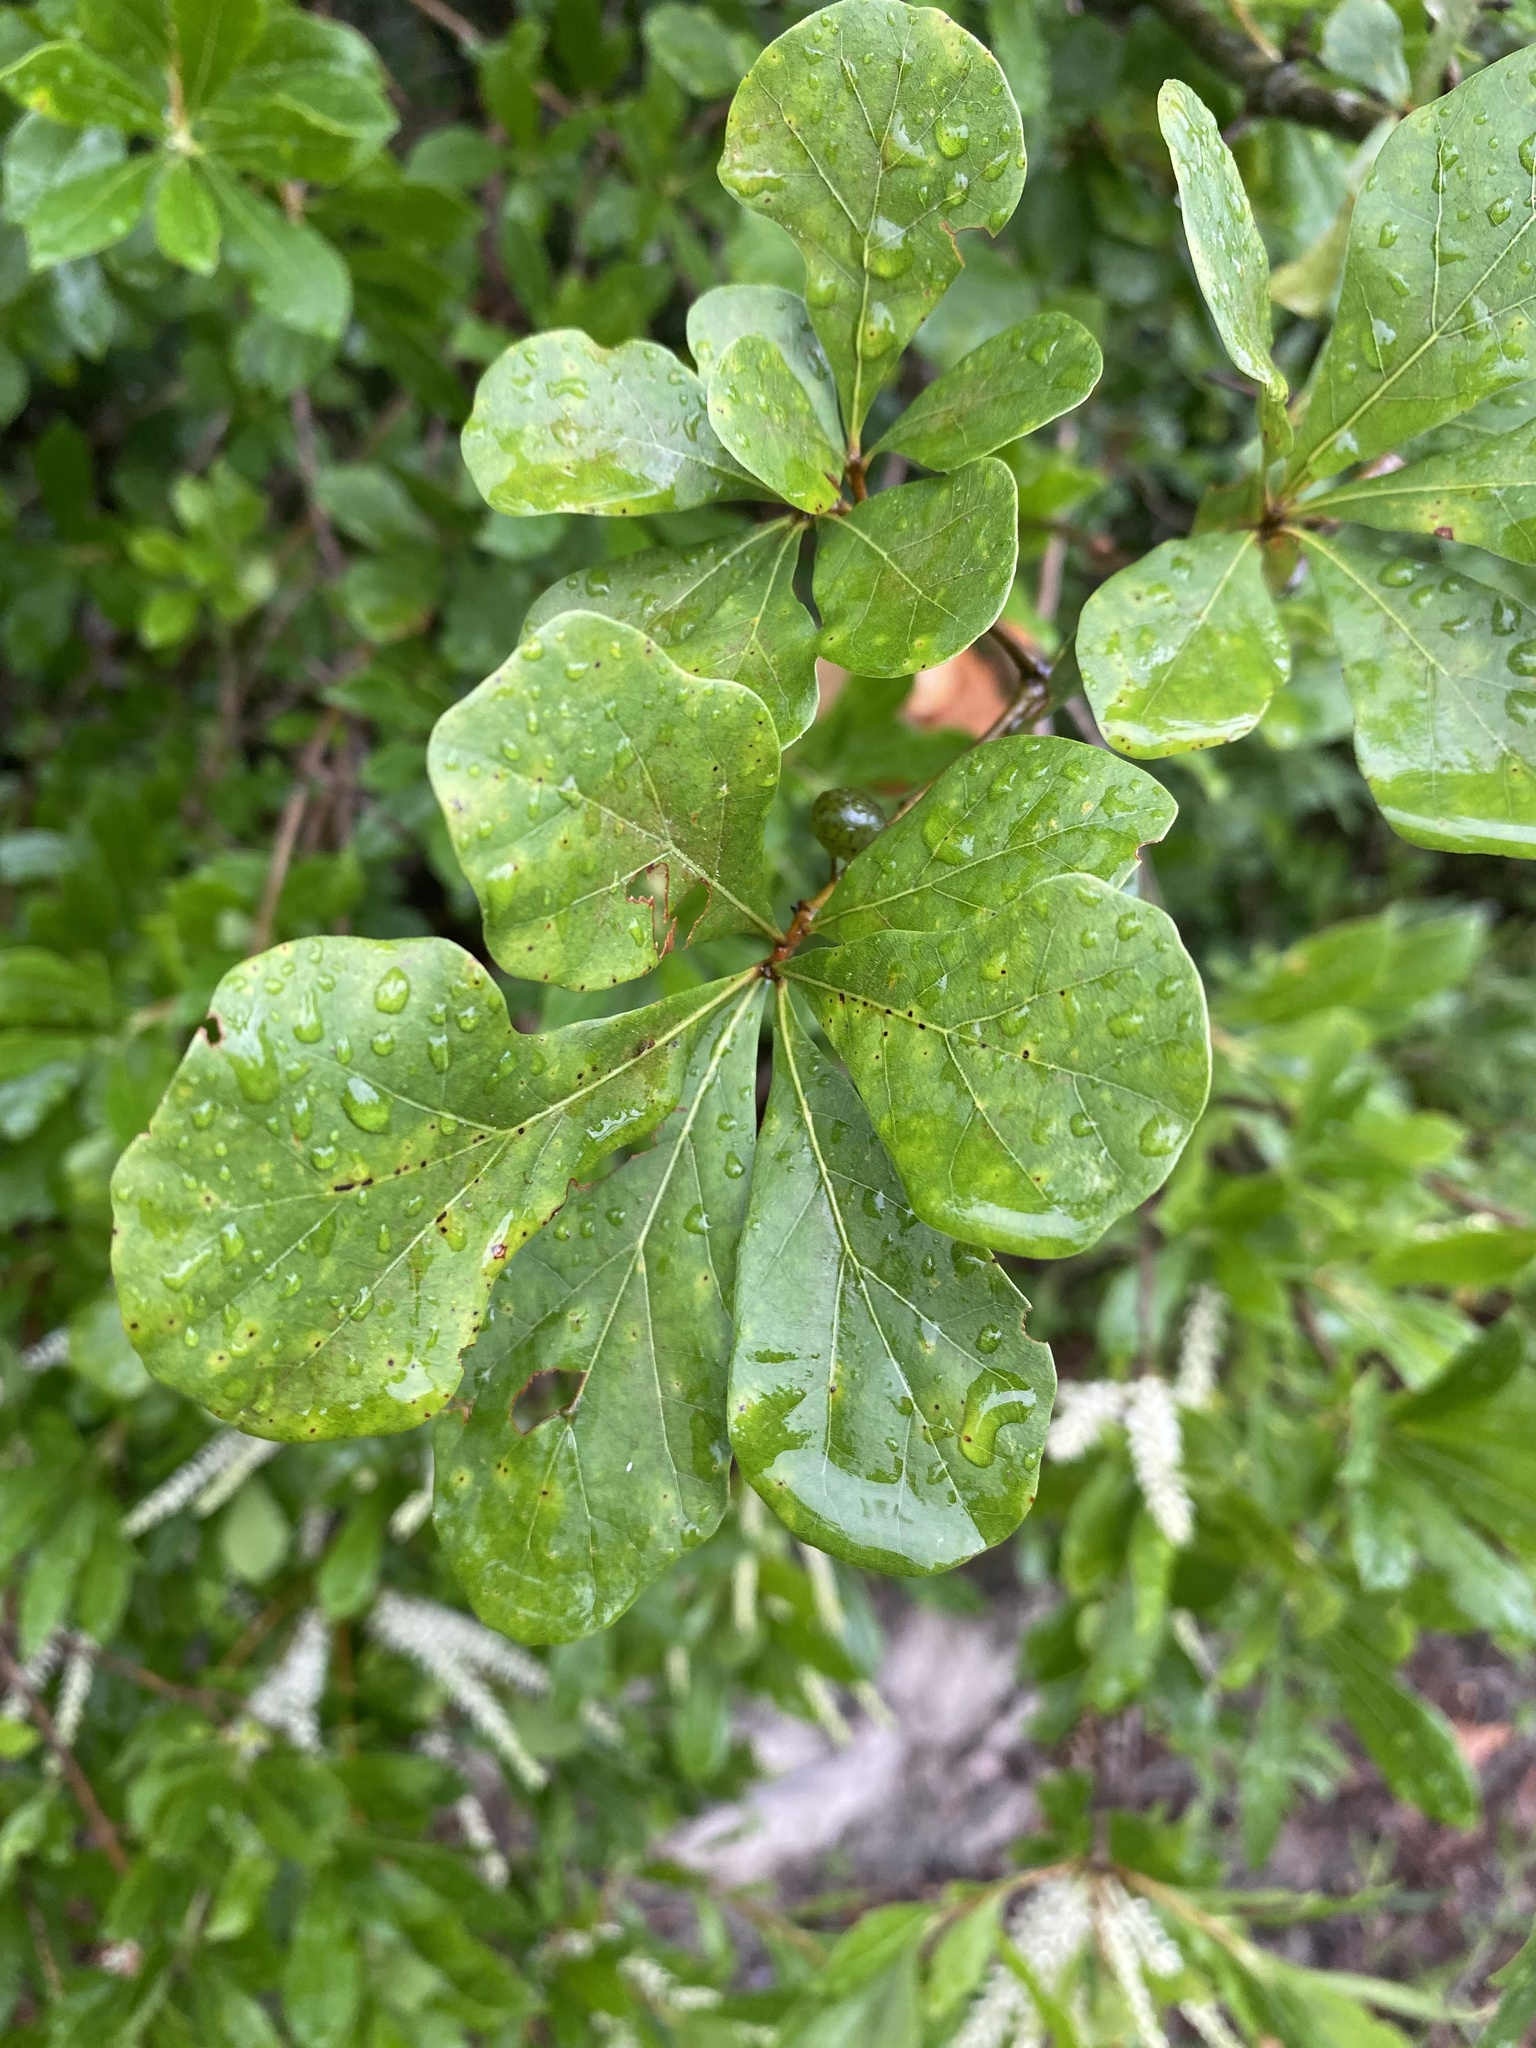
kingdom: Plantae
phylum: Tracheophyta
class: Magnoliopsida
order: Fagales
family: Fagaceae
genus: Quercus
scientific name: Quercus nigra
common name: Water oak
